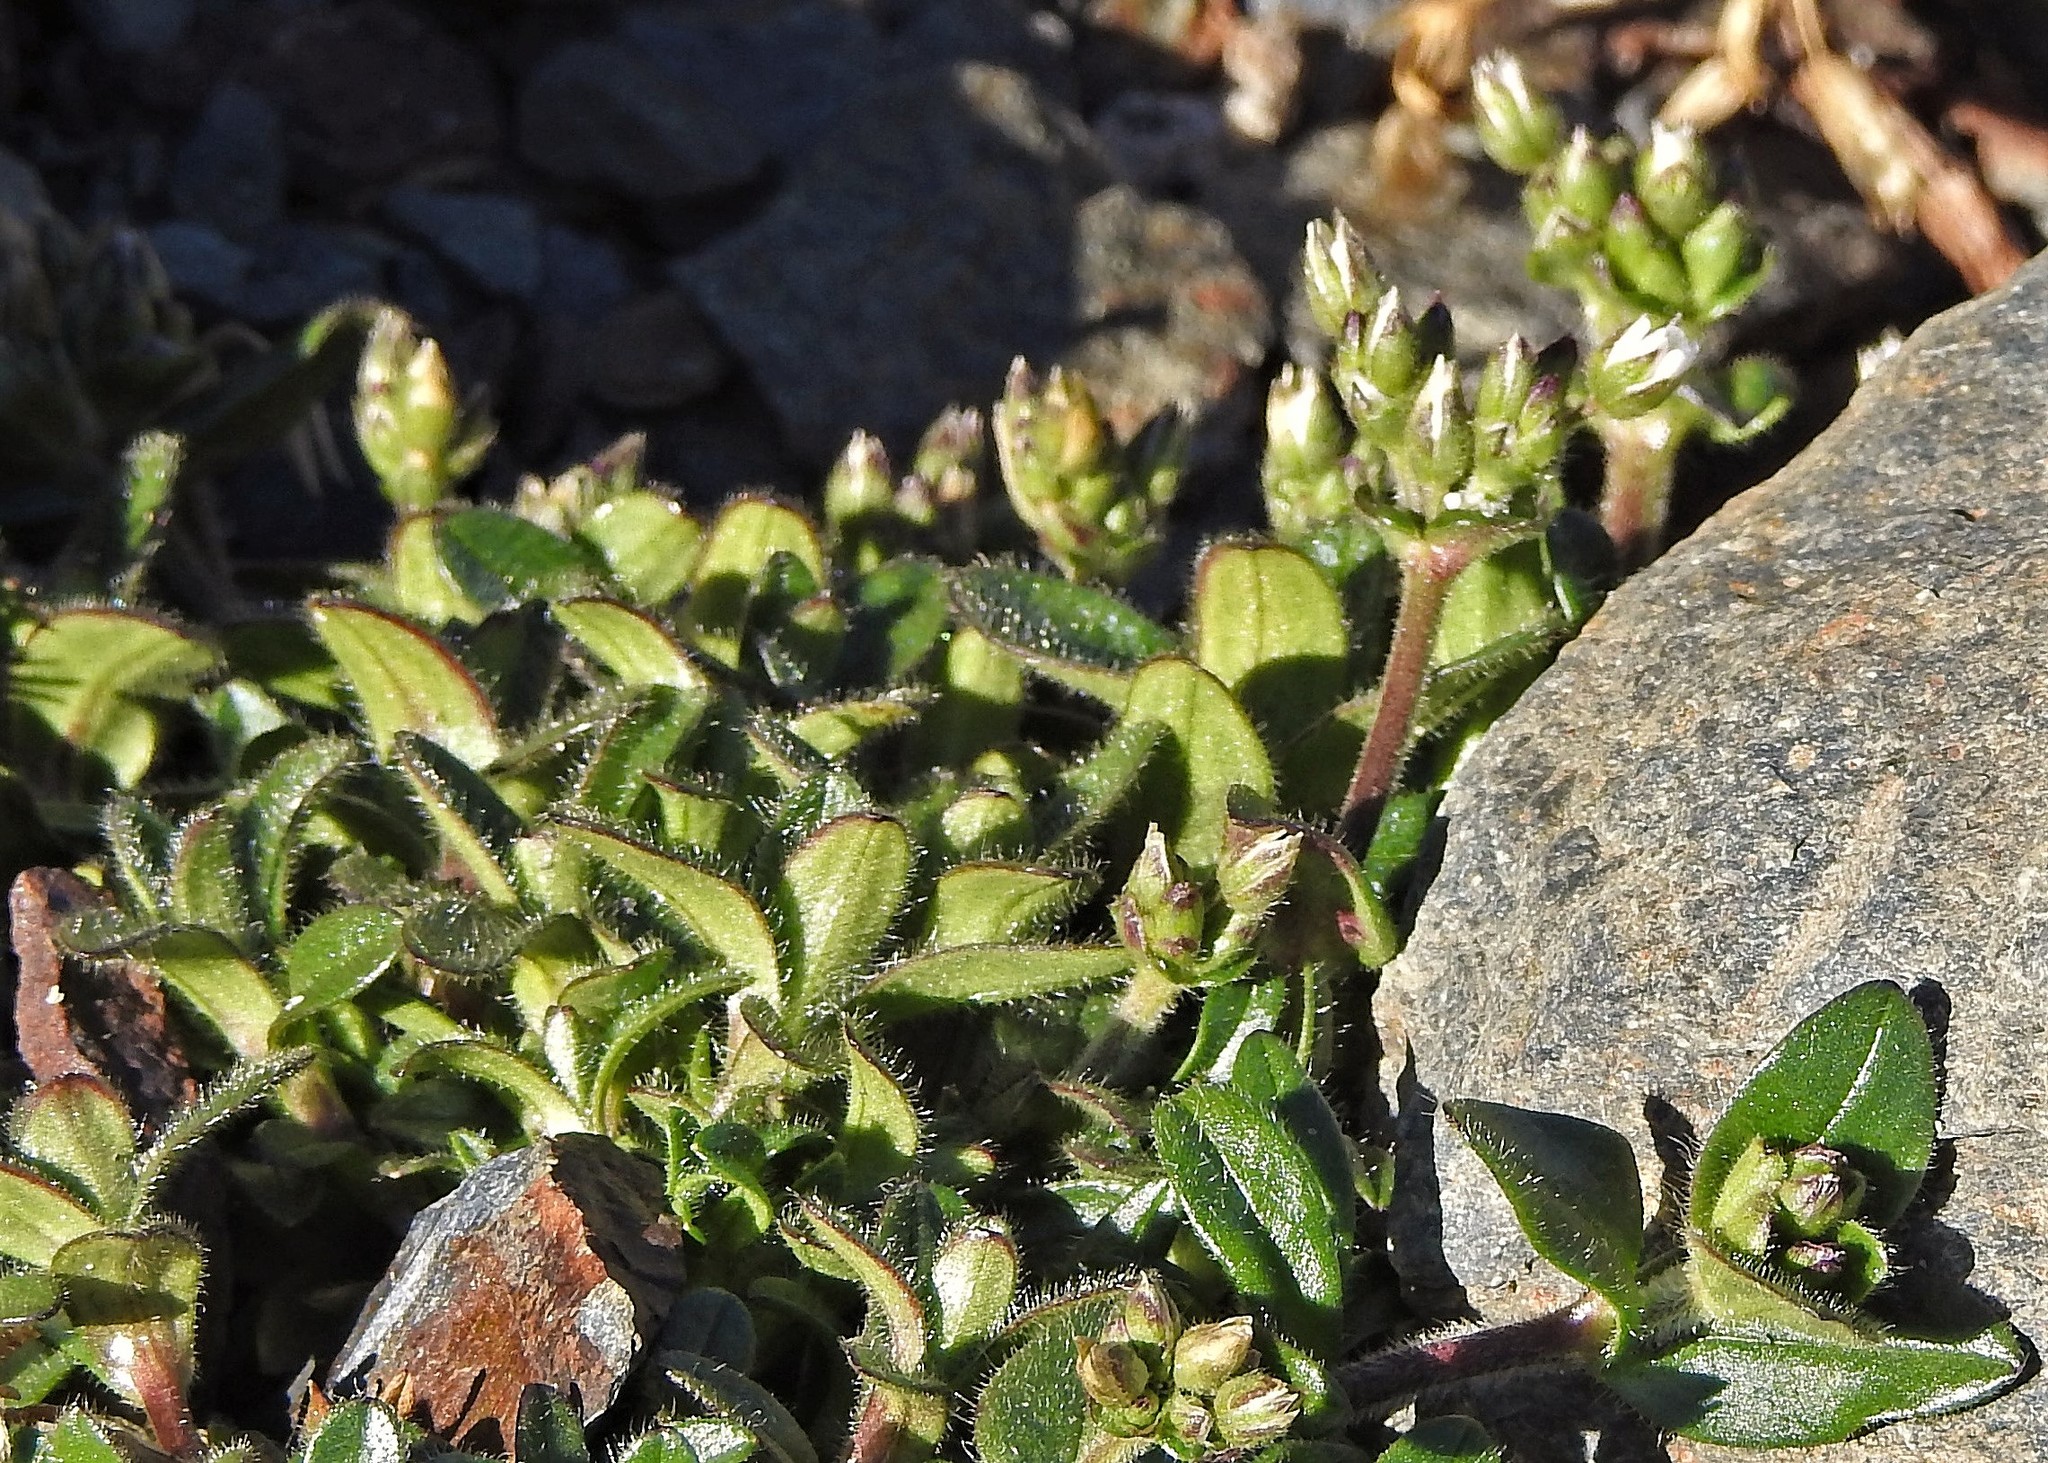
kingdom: Plantae
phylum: Tracheophyta
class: Magnoliopsida
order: Caryophyllales
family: Caryophyllaceae
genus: Cerastium
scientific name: Cerastium fontanum
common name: Common mouse-ear
